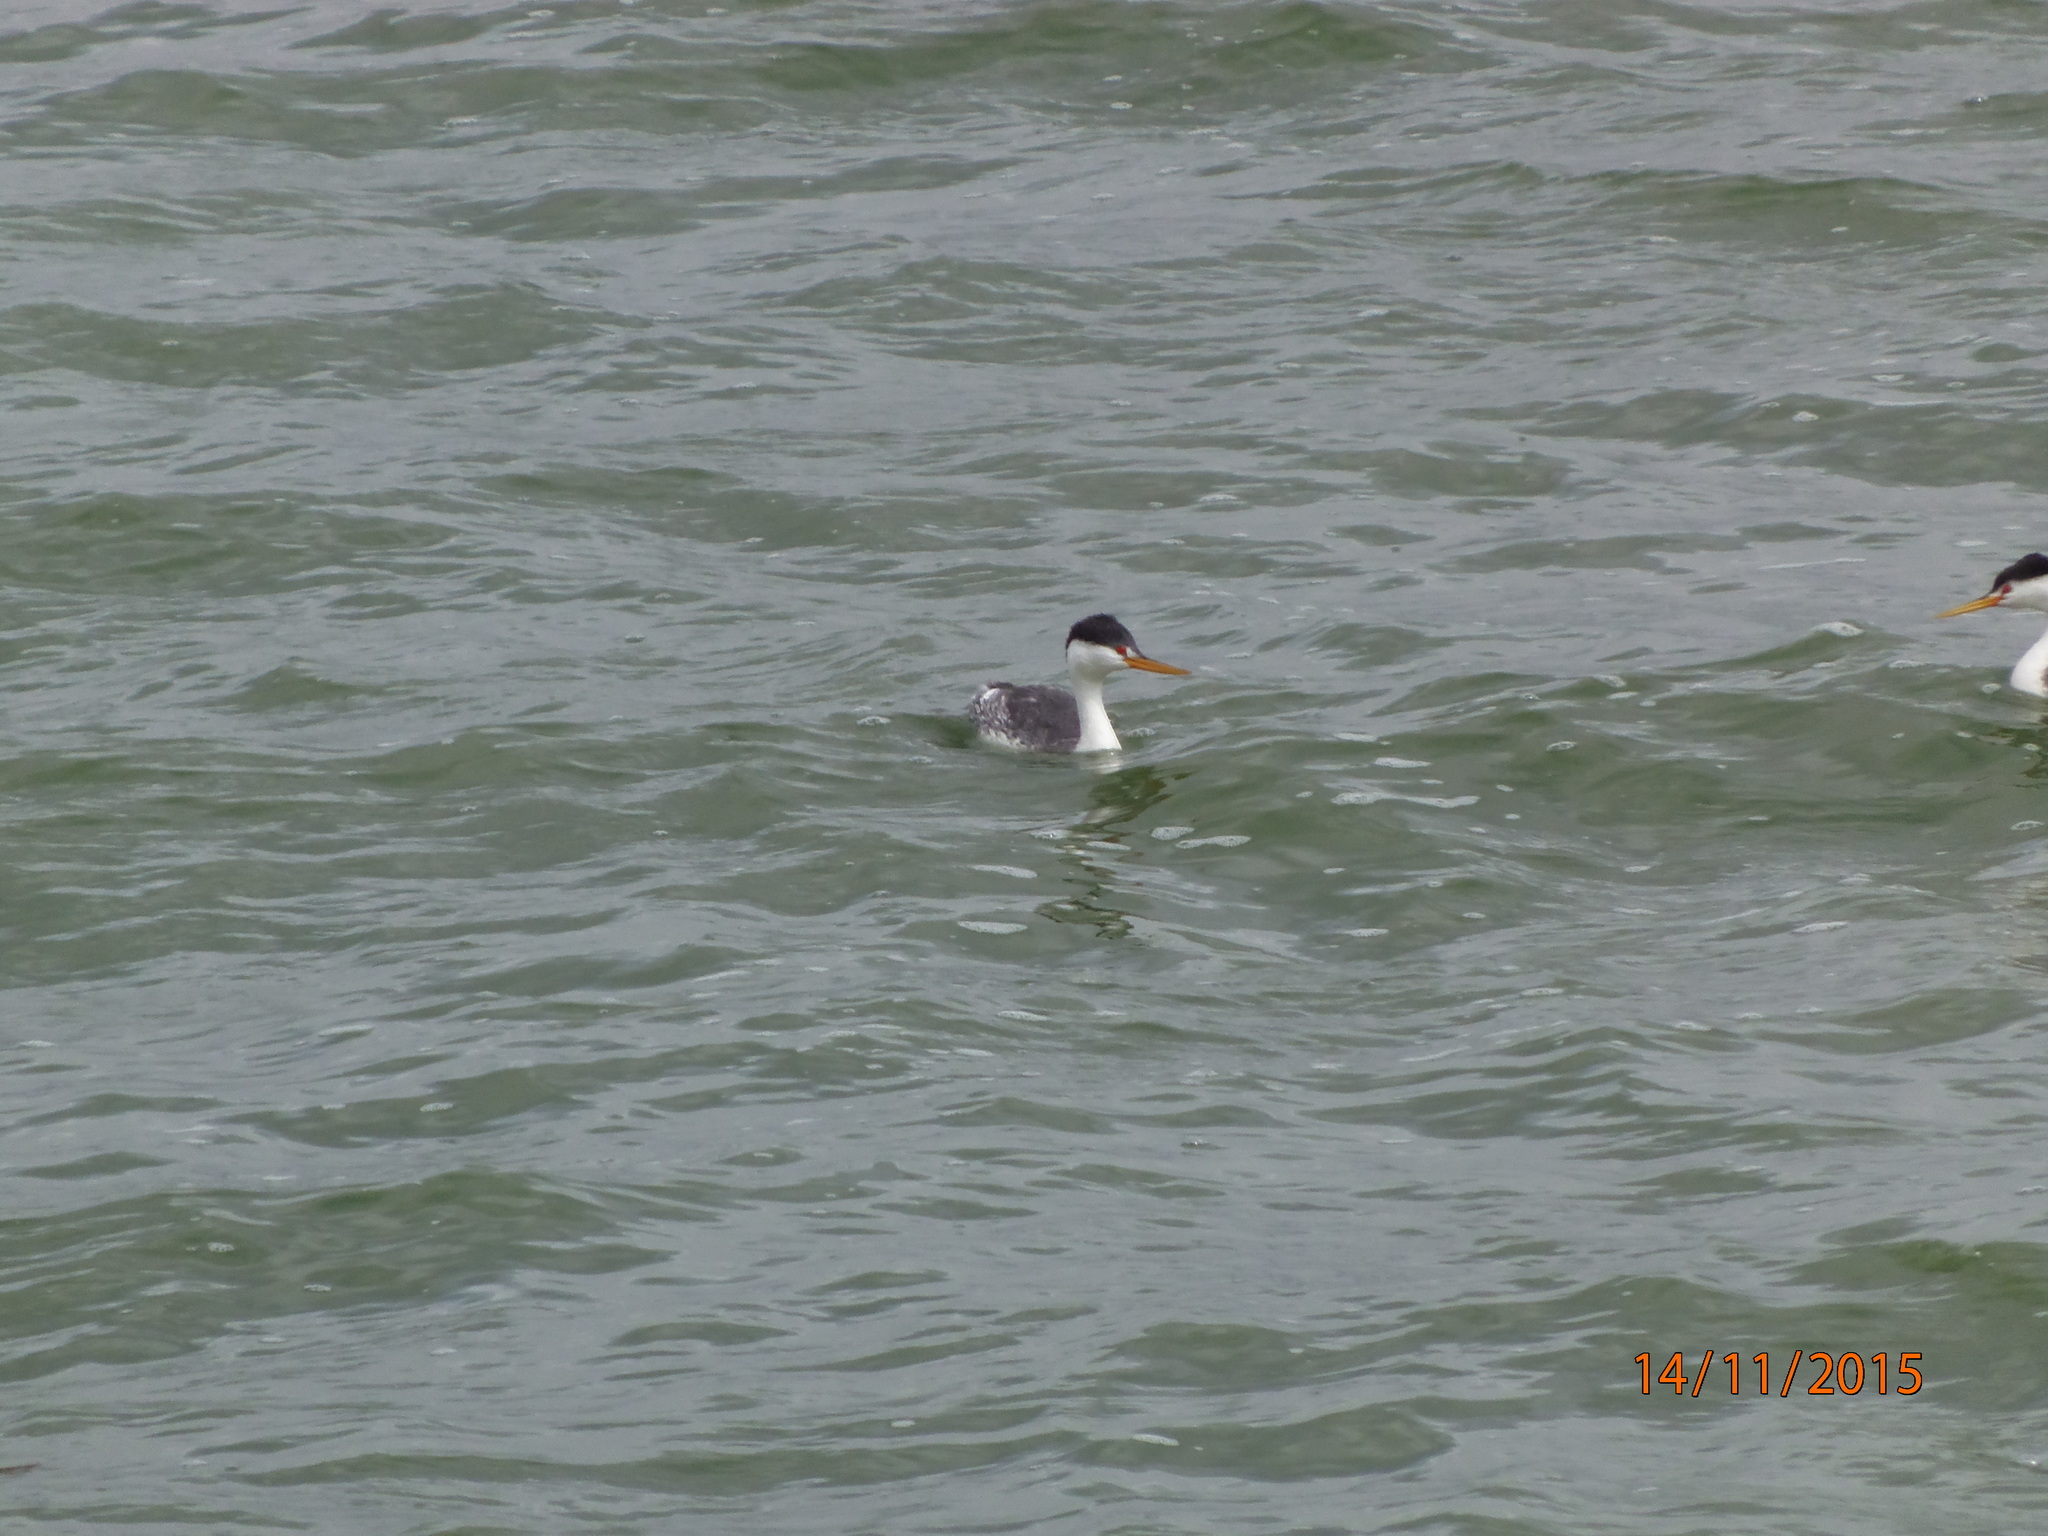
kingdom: Animalia
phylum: Chordata
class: Aves
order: Podicipediformes
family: Podicipedidae
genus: Aechmophorus
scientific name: Aechmophorus clarkii
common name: Clark's grebe
